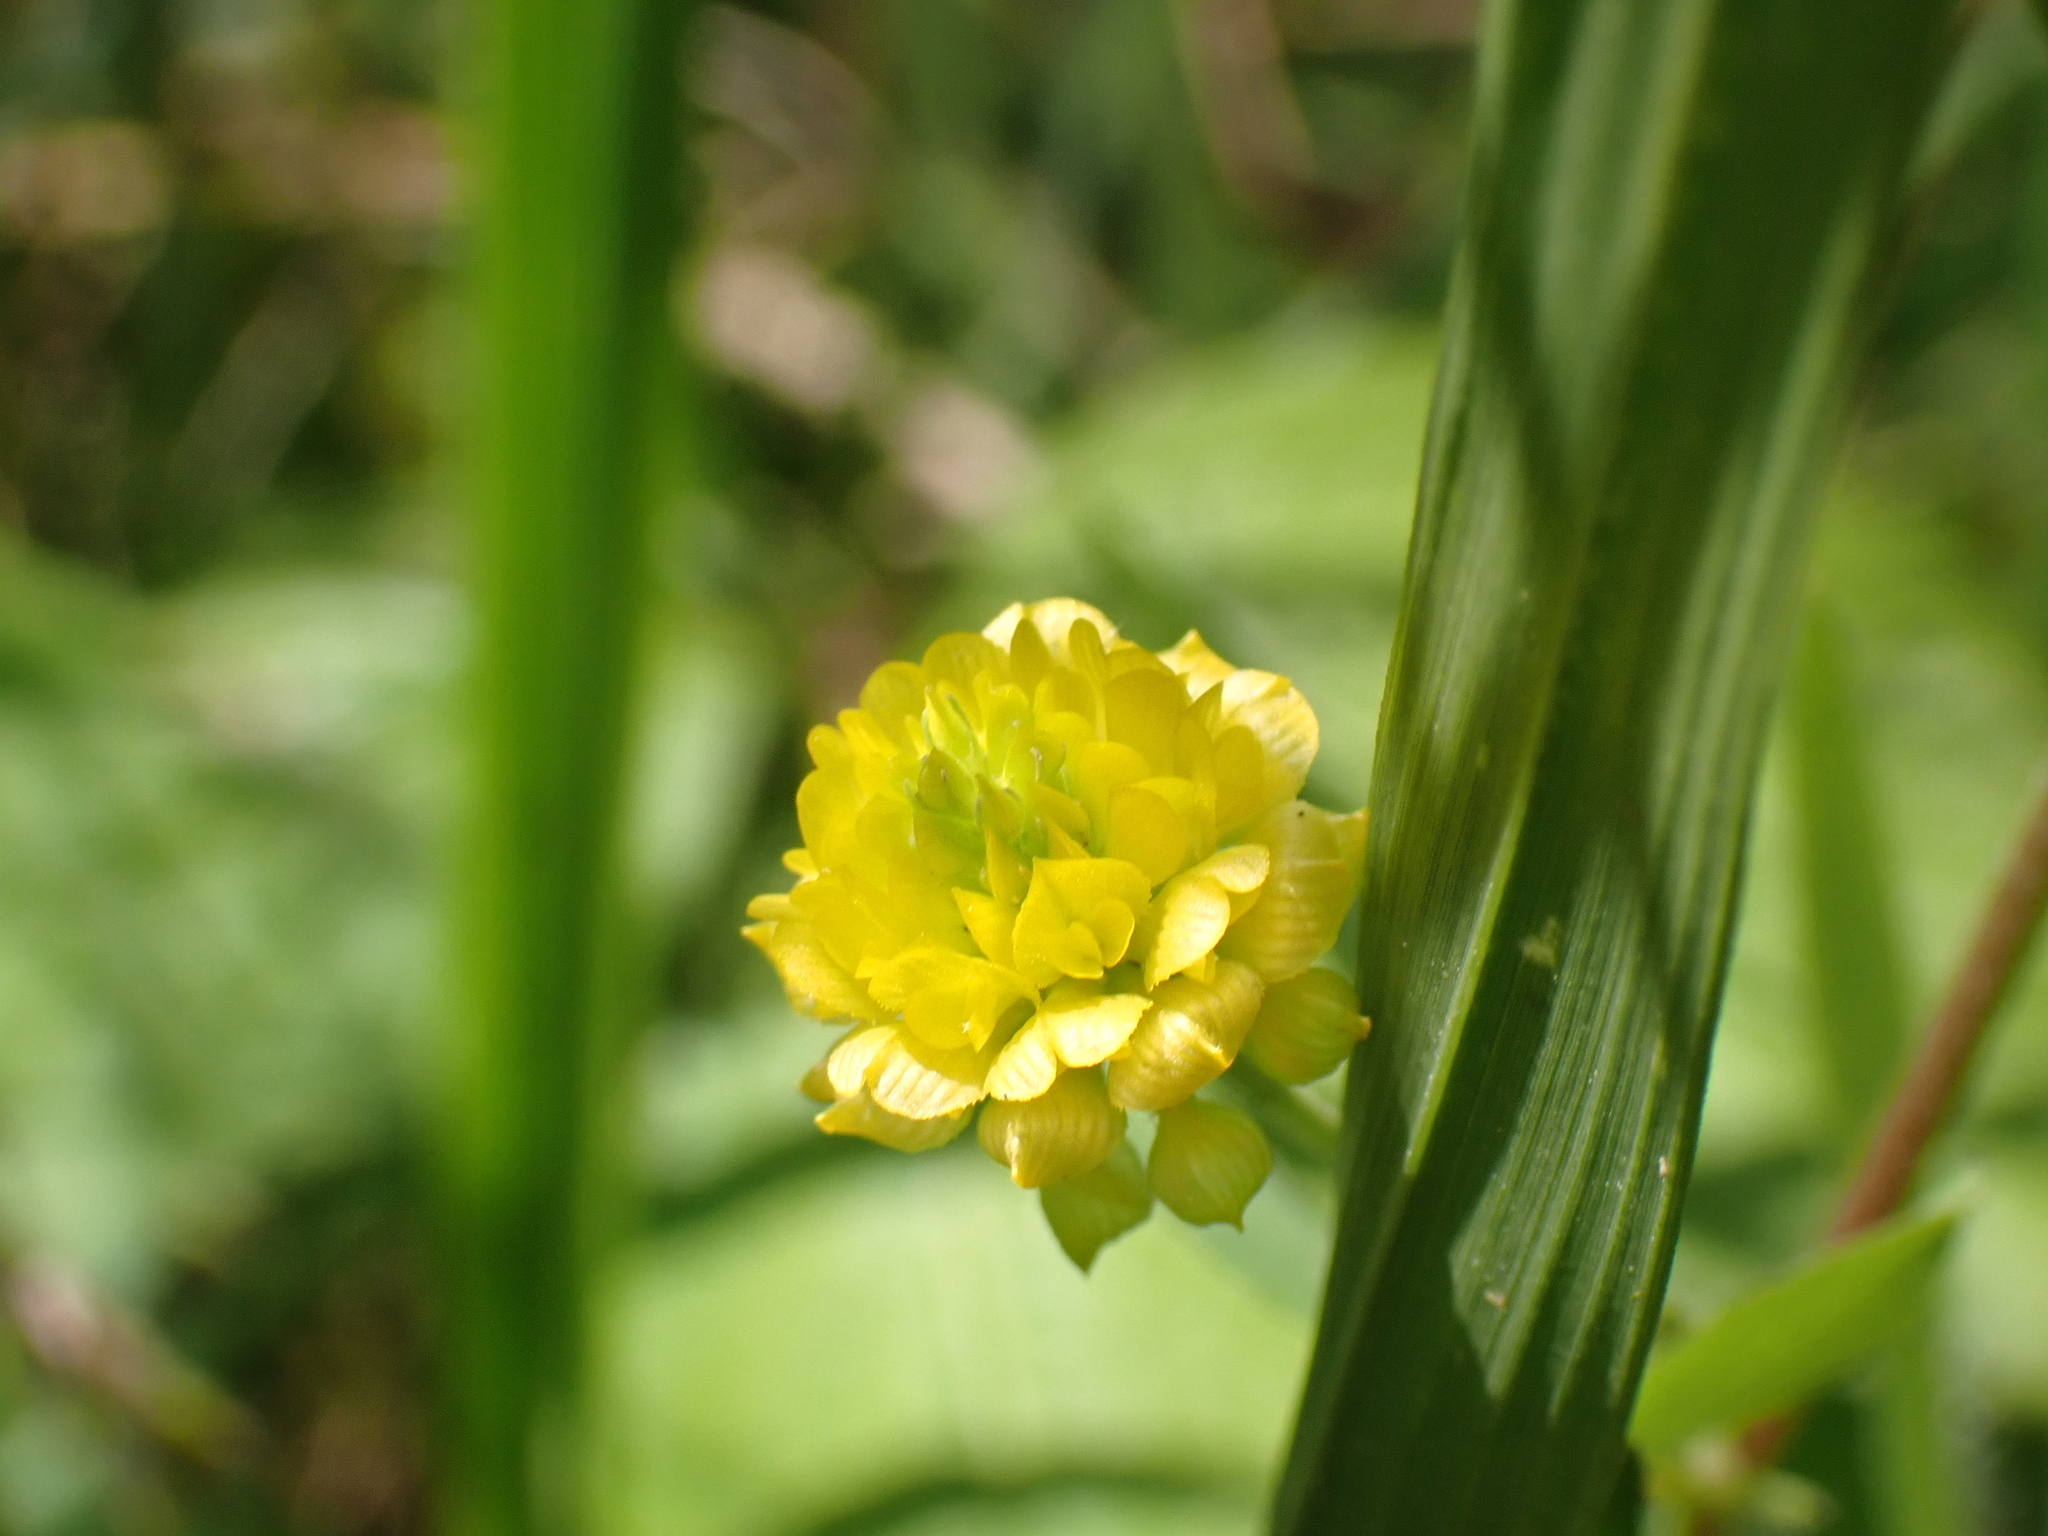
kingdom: Plantae
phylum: Tracheophyta
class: Magnoliopsida
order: Fabales
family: Fabaceae
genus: Trifolium
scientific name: Trifolium campestre
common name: Field clover
